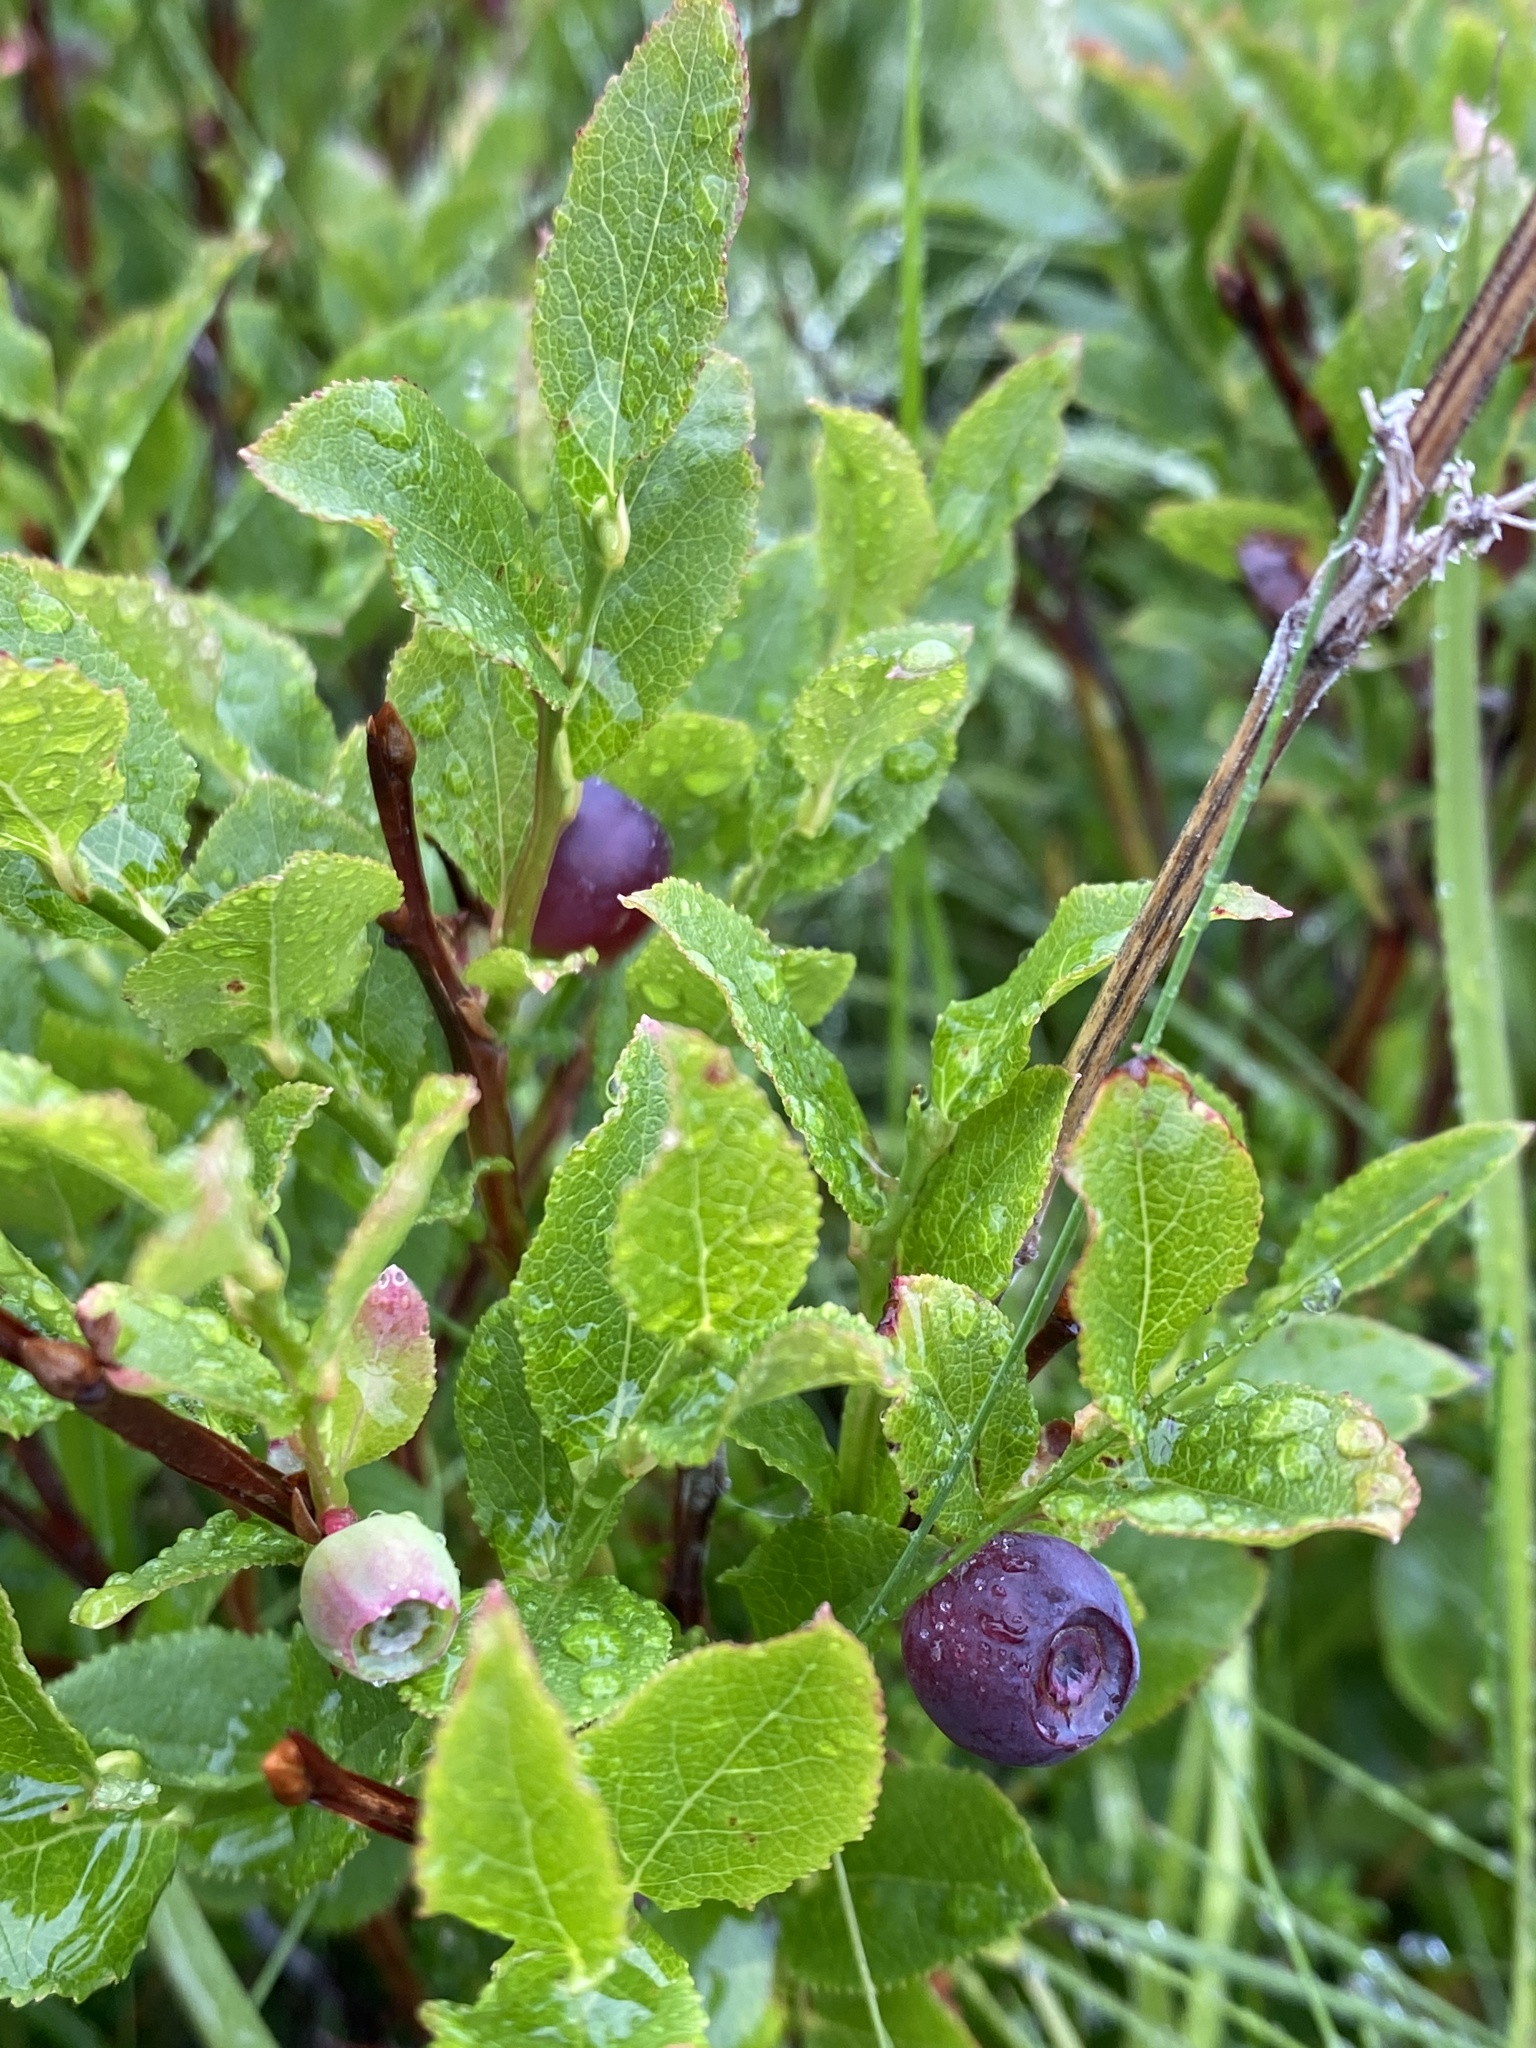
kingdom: Plantae
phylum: Tracheophyta
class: Magnoliopsida
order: Ericales
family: Ericaceae
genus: Vaccinium
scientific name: Vaccinium myrtillus
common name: Bilberry
